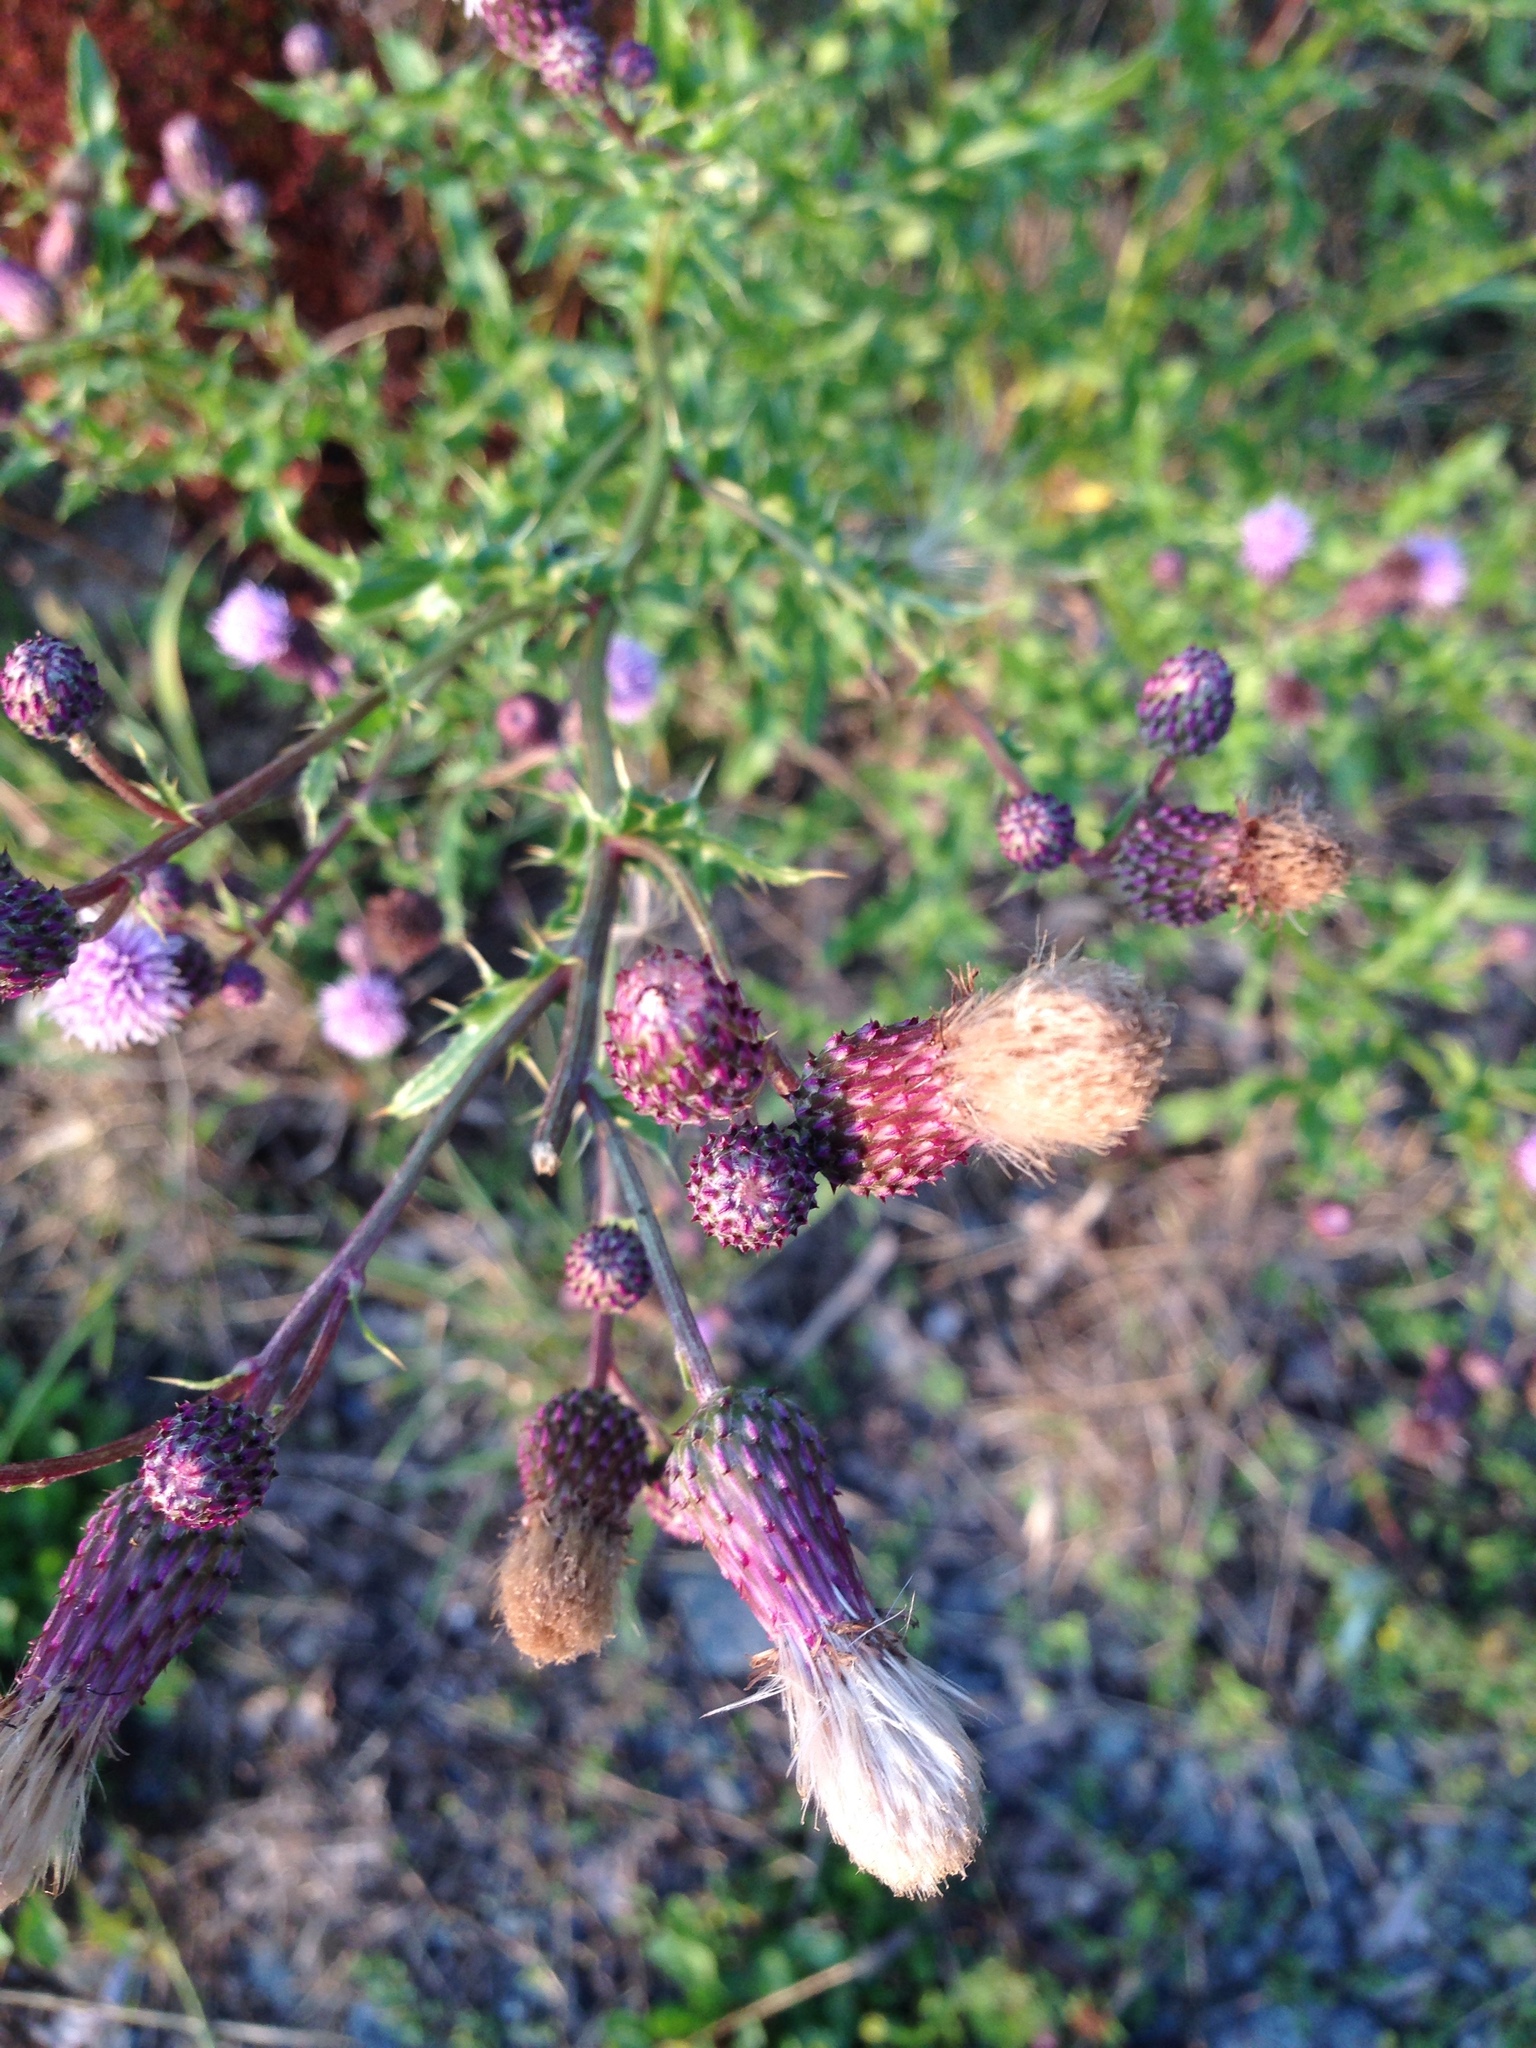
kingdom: Plantae
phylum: Tracheophyta
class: Magnoliopsida
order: Asterales
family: Asteraceae
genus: Cirsium
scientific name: Cirsium arvense
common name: Creeping thistle
